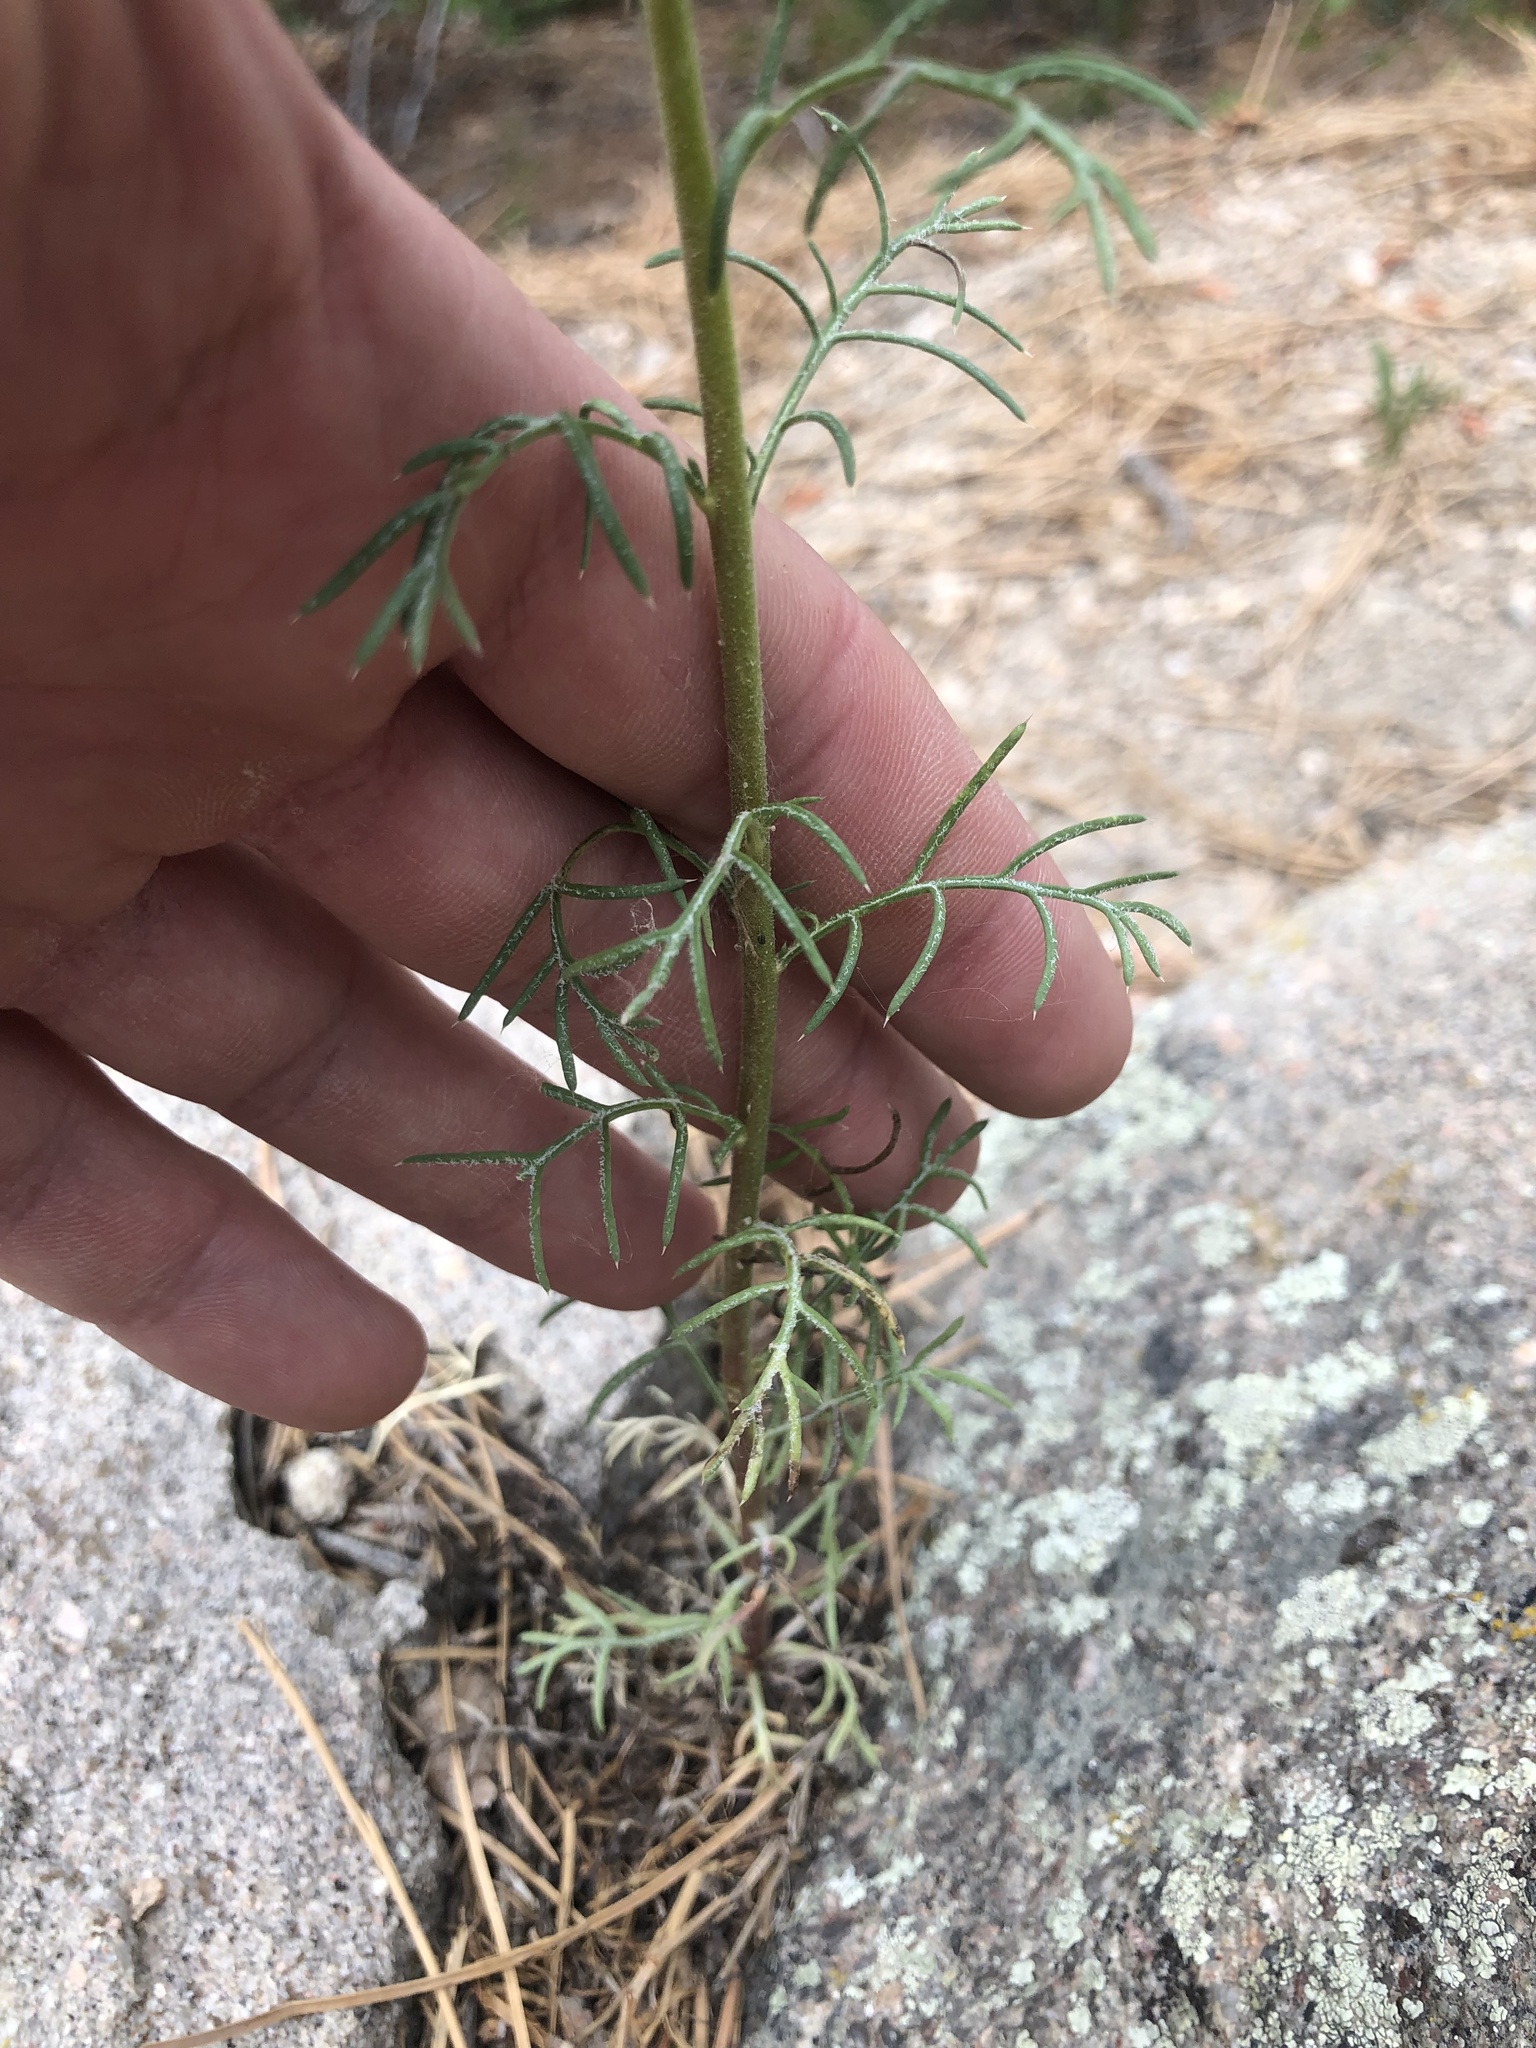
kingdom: Plantae
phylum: Tracheophyta
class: Magnoliopsida
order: Ericales
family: Polemoniaceae
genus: Ipomopsis
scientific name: Ipomopsis aggregata
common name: Scarlet gilia
